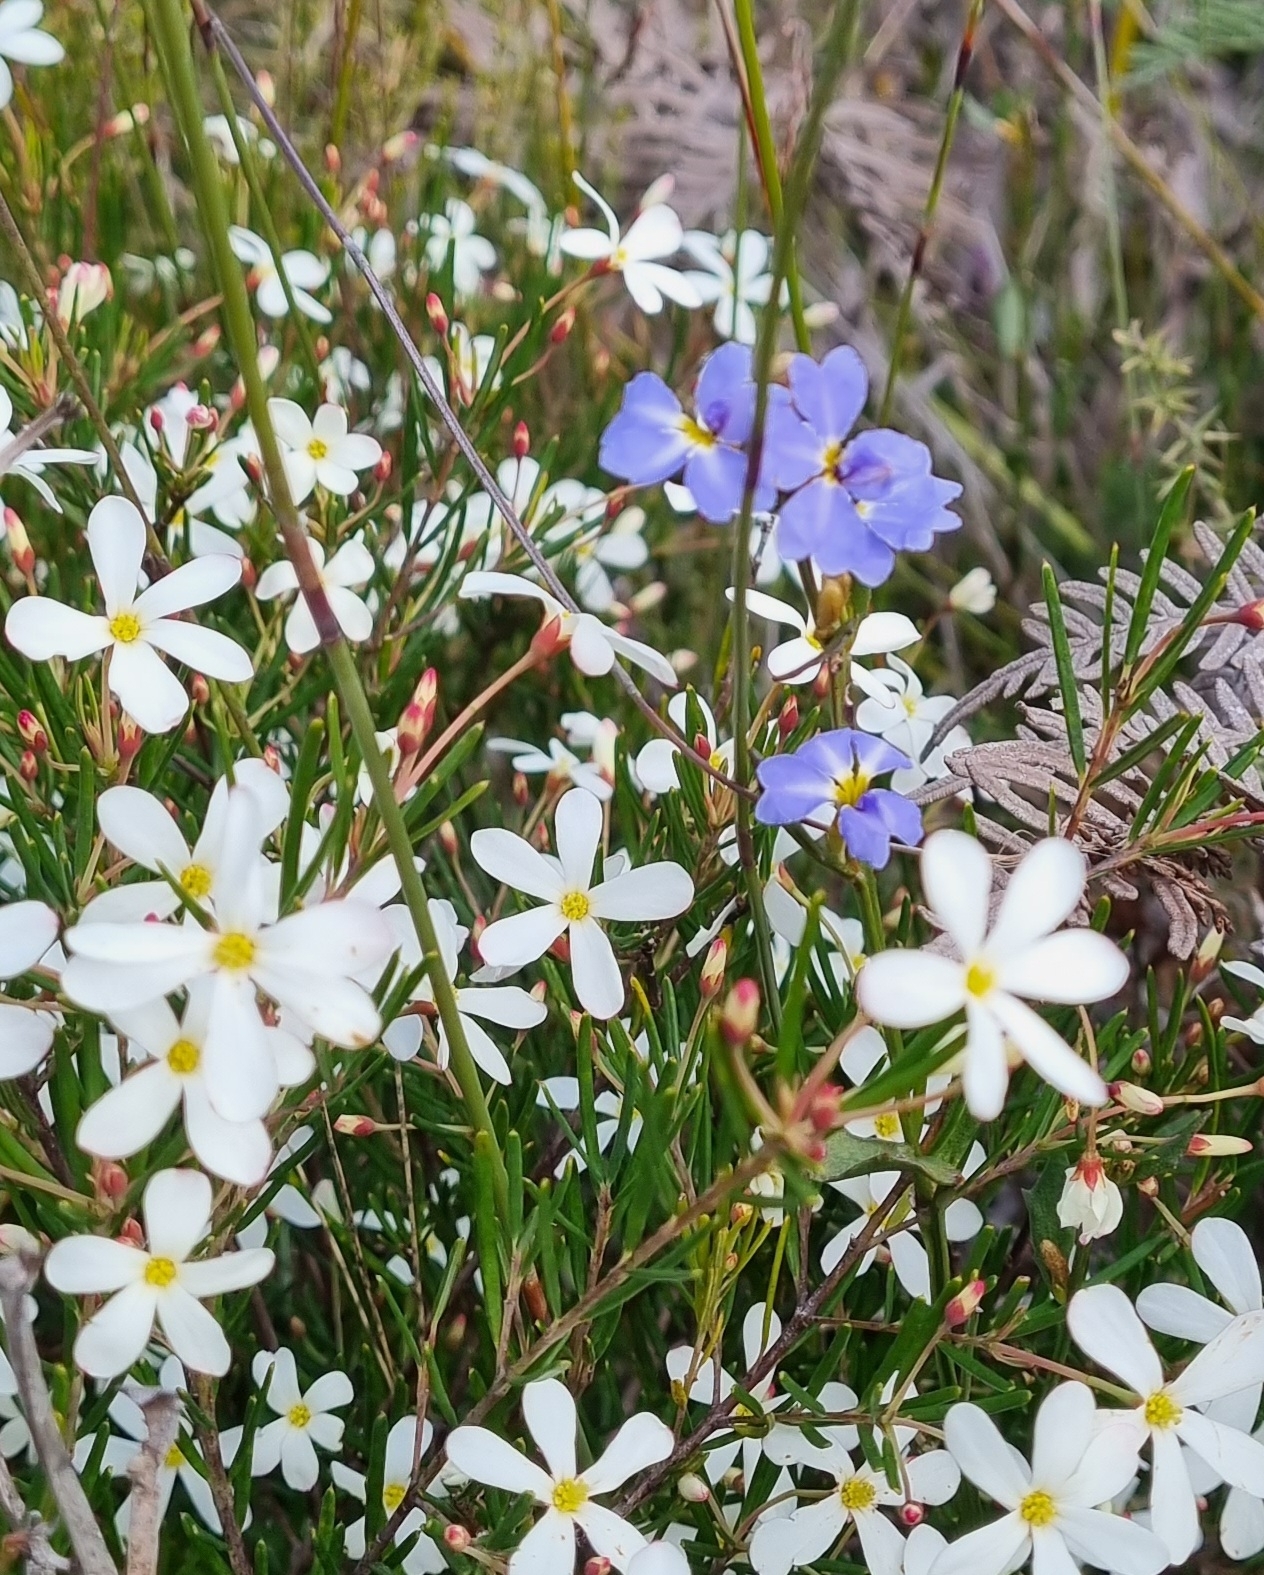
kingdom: Plantae
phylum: Tracheophyta
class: Magnoliopsida
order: Malpighiales
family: Euphorbiaceae
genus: Ricinocarpos
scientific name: Ricinocarpos pinifolius
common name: Weddingbush
